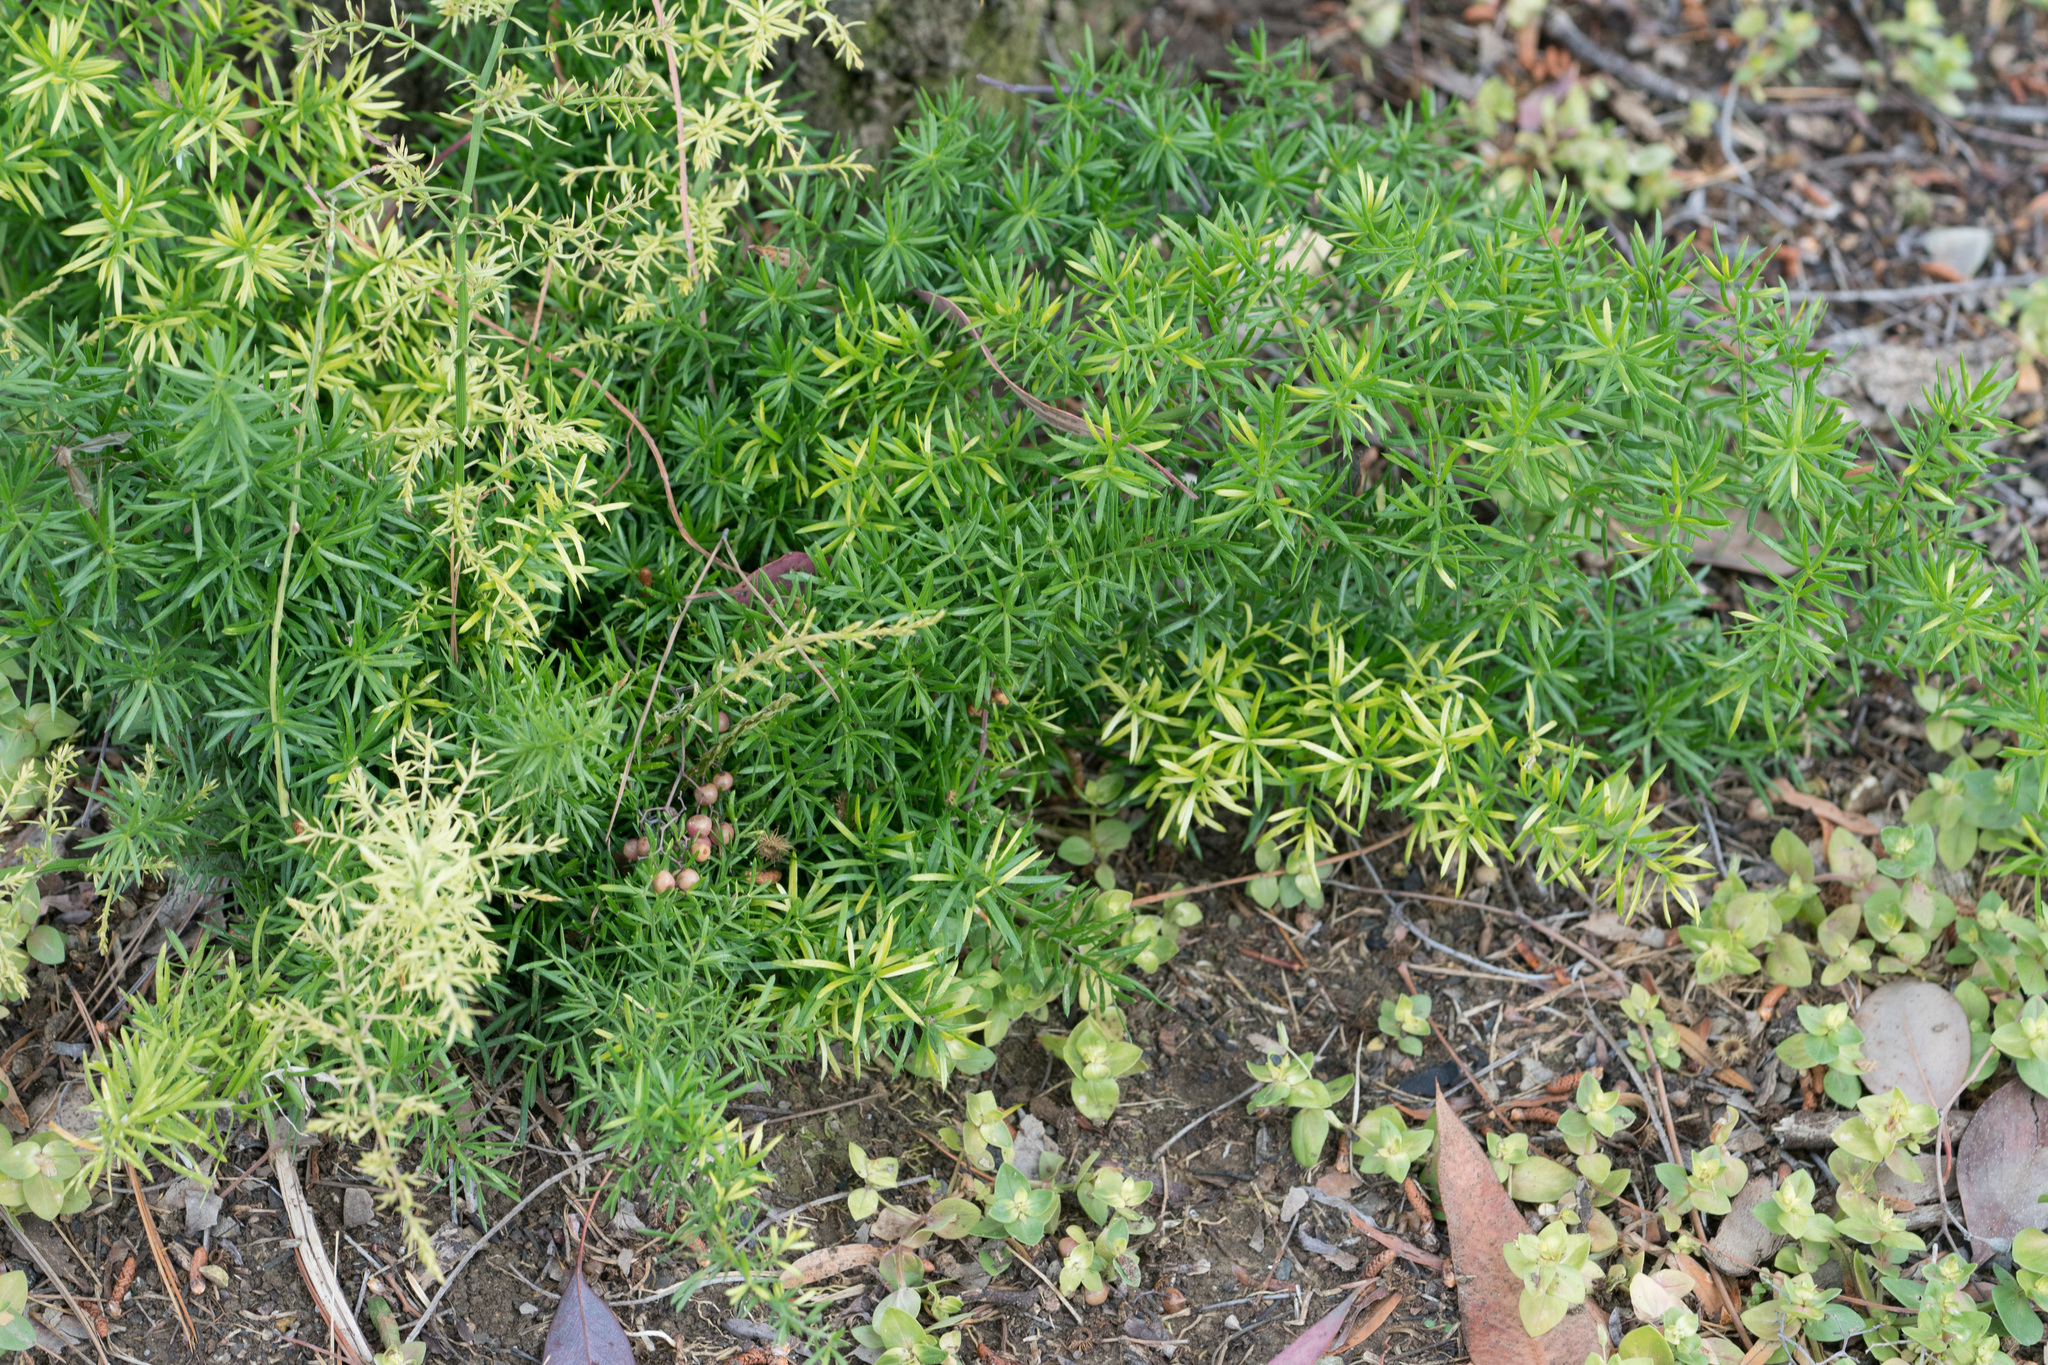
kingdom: Plantae
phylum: Tracheophyta
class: Liliopsida
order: Asparagales
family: Asparagaceae
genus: Asparagus
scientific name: Asparagus aethiopicus
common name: Sprenger's asparagus fern
